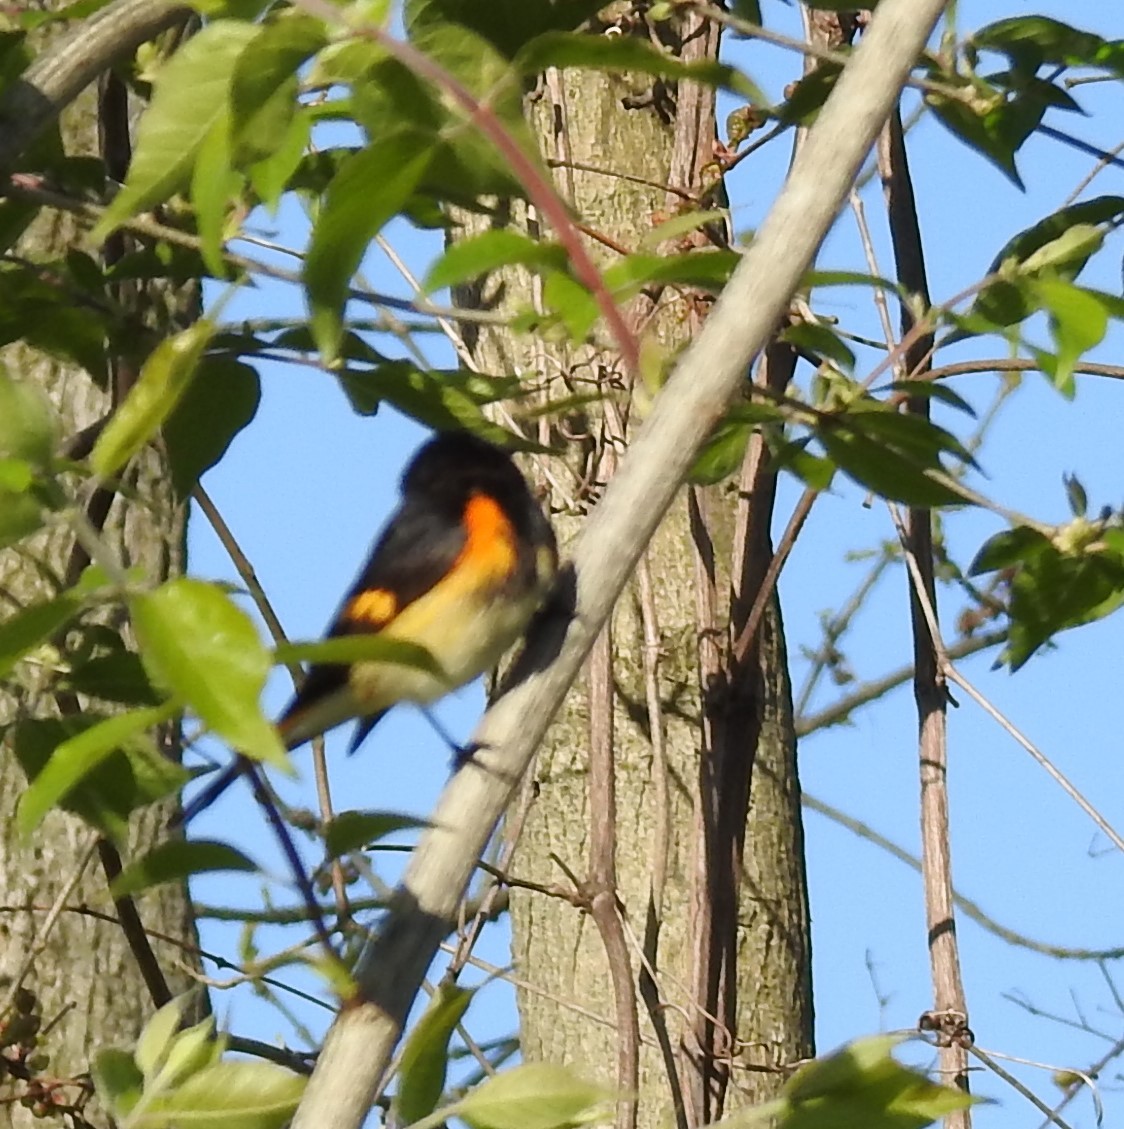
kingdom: Animalia
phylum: Chordata
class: Aves
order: Passeriformes
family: Parulidae
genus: Setophaga
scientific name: Setophaga ruticilla
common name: American redstart
